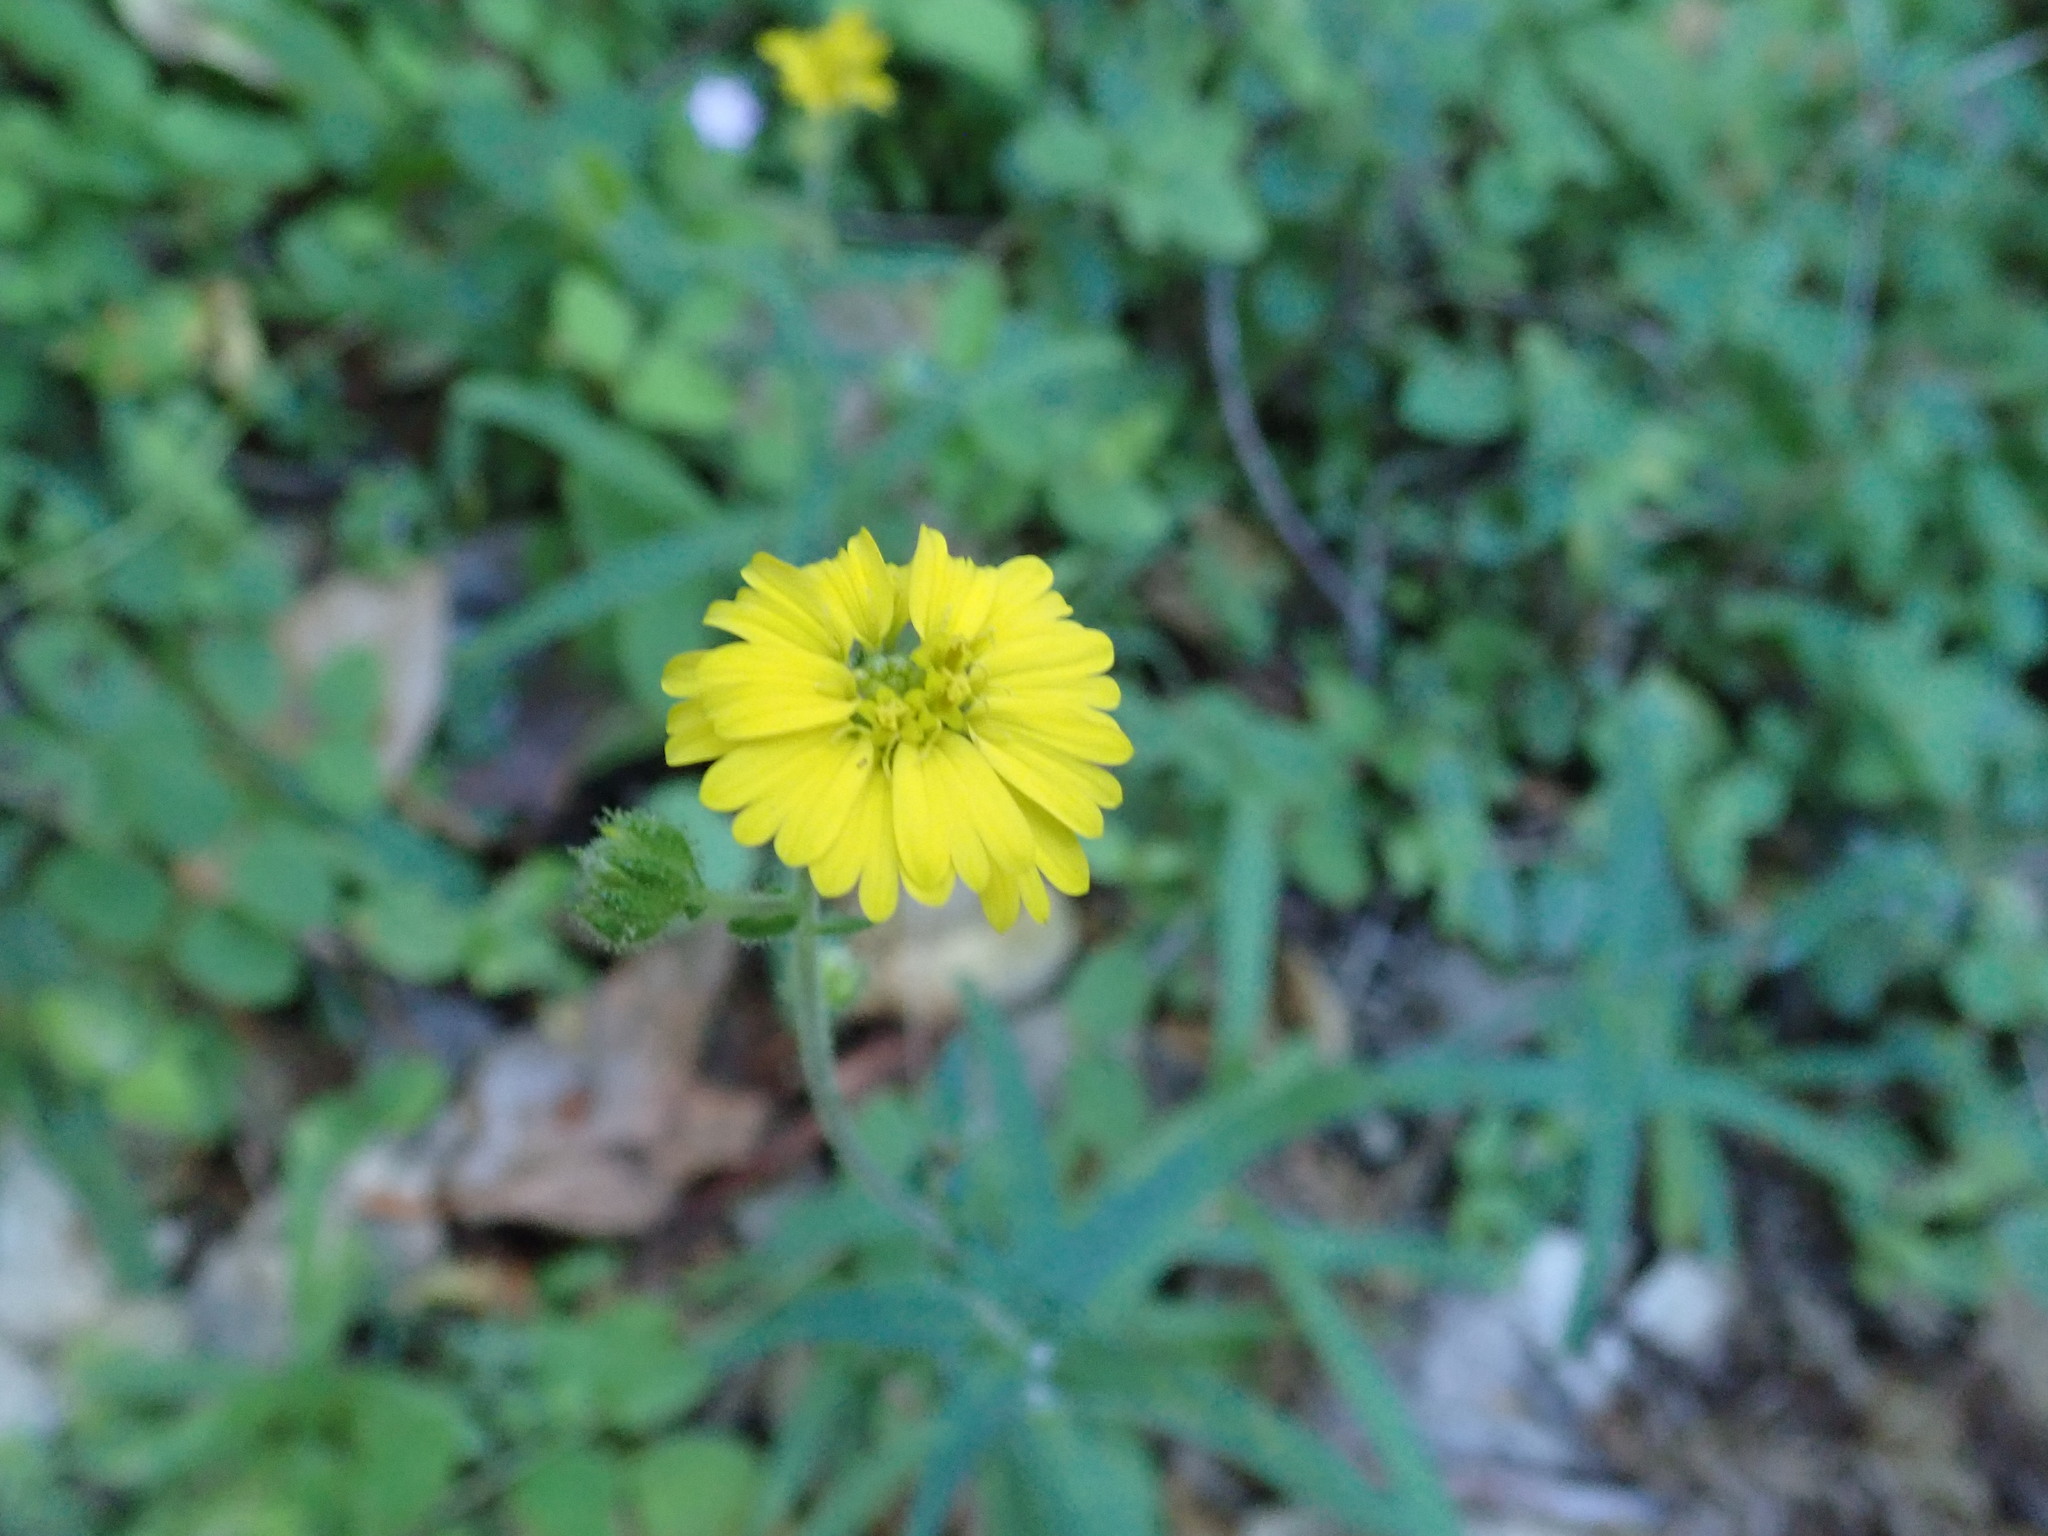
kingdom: Plantae
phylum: Tracheophyta
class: Magnoliopsida
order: Asterales
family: Asteraceae
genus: Anisocarpus
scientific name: Anisocarpus madioides
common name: Woodland madia
